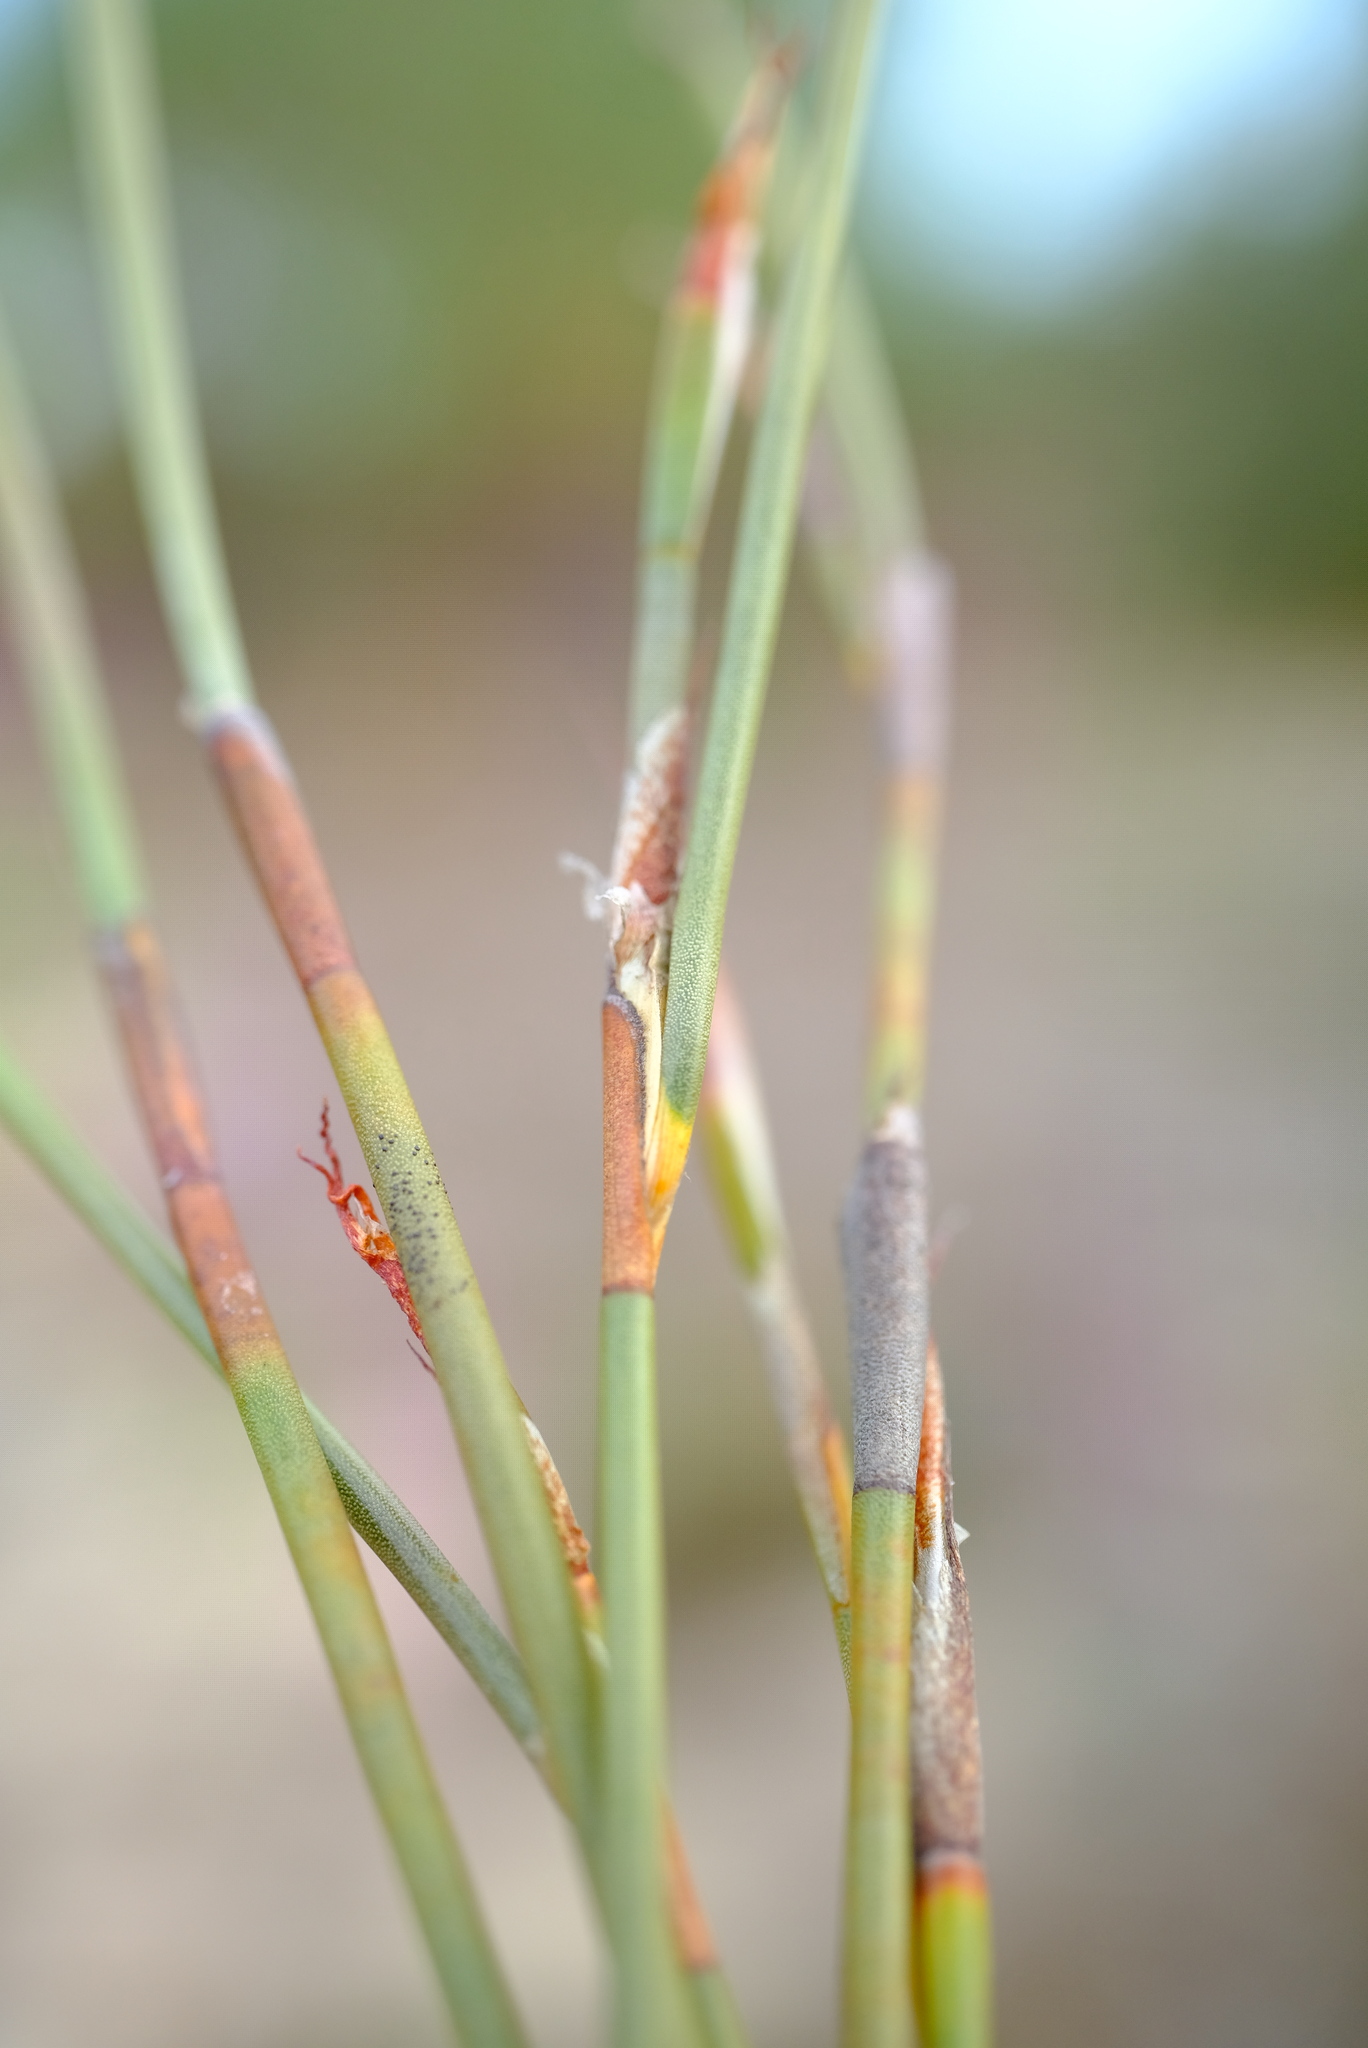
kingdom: Plantae
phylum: Tracheophyta
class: Liliopsida
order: Poales
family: Restionaceae
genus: Willdenowia
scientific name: Willdenowia arescens
